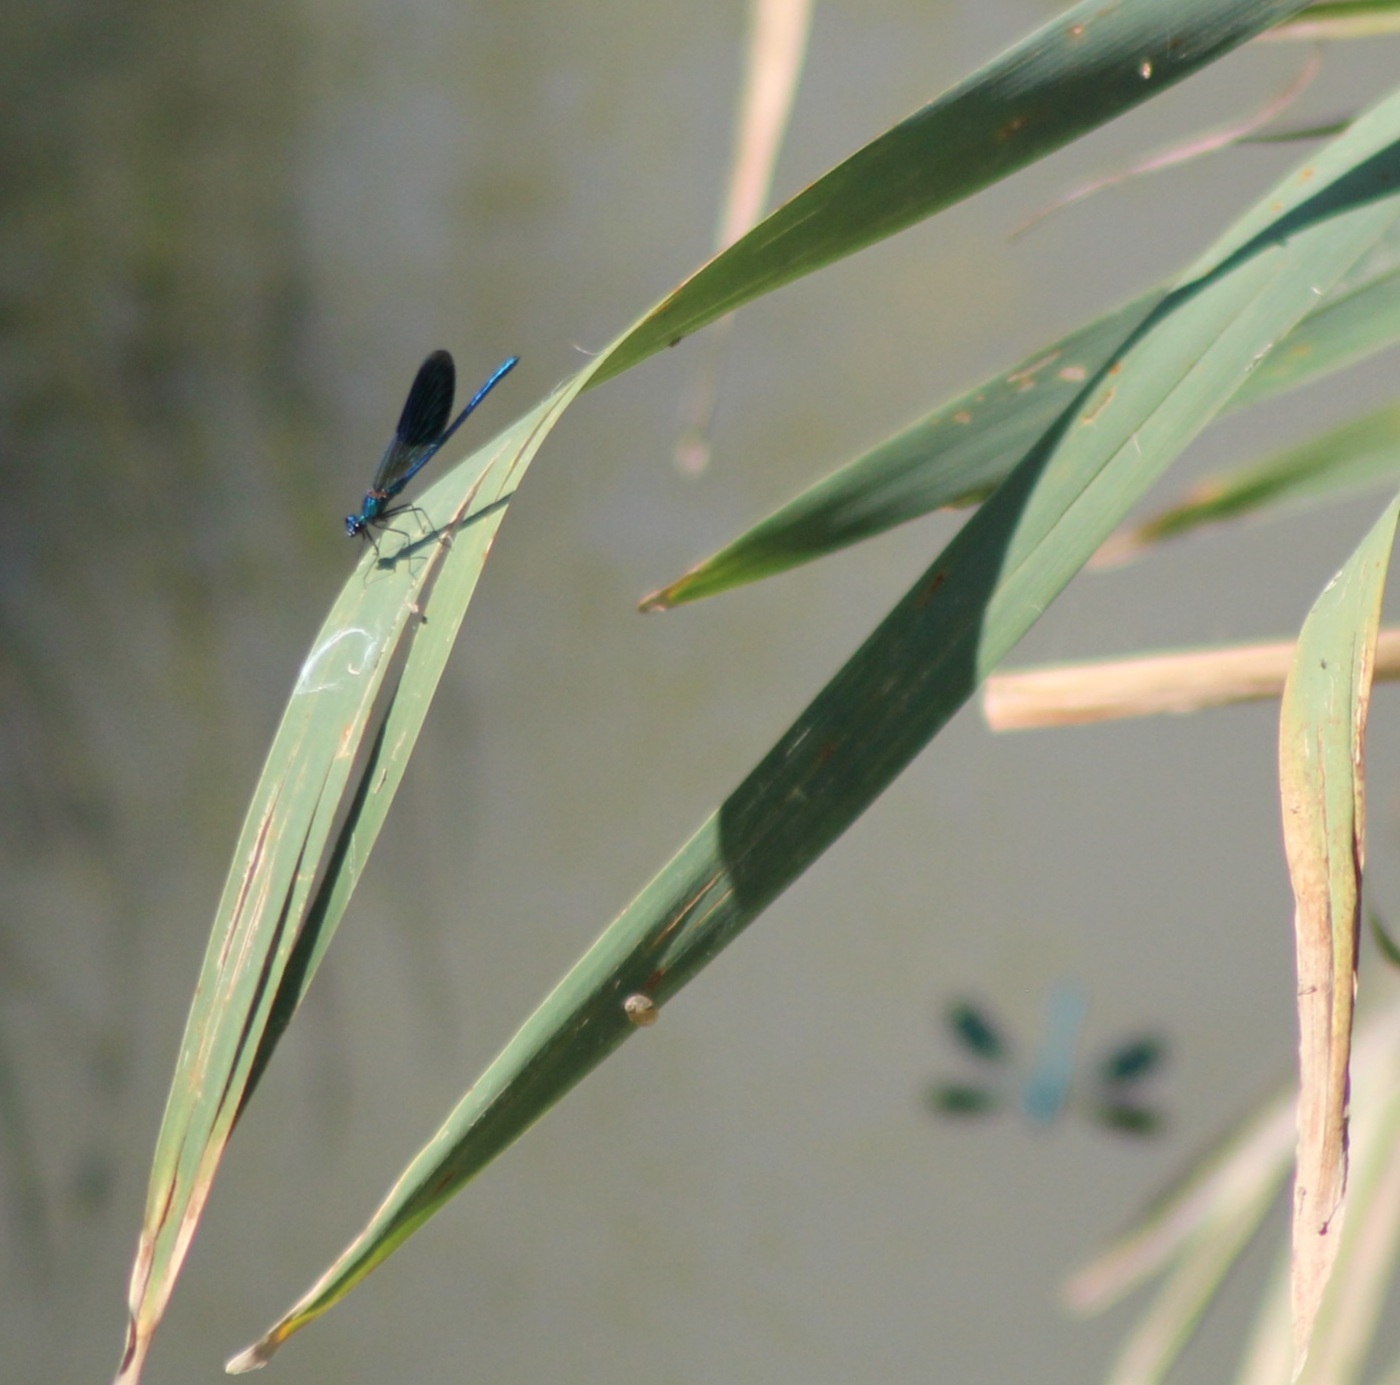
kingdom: Animalia
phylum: Arthropoda
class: Insecta
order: Odonata
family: Calopterygidae
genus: Calopteryx
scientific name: Calopteryx splendens
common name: Banded demoiselle
